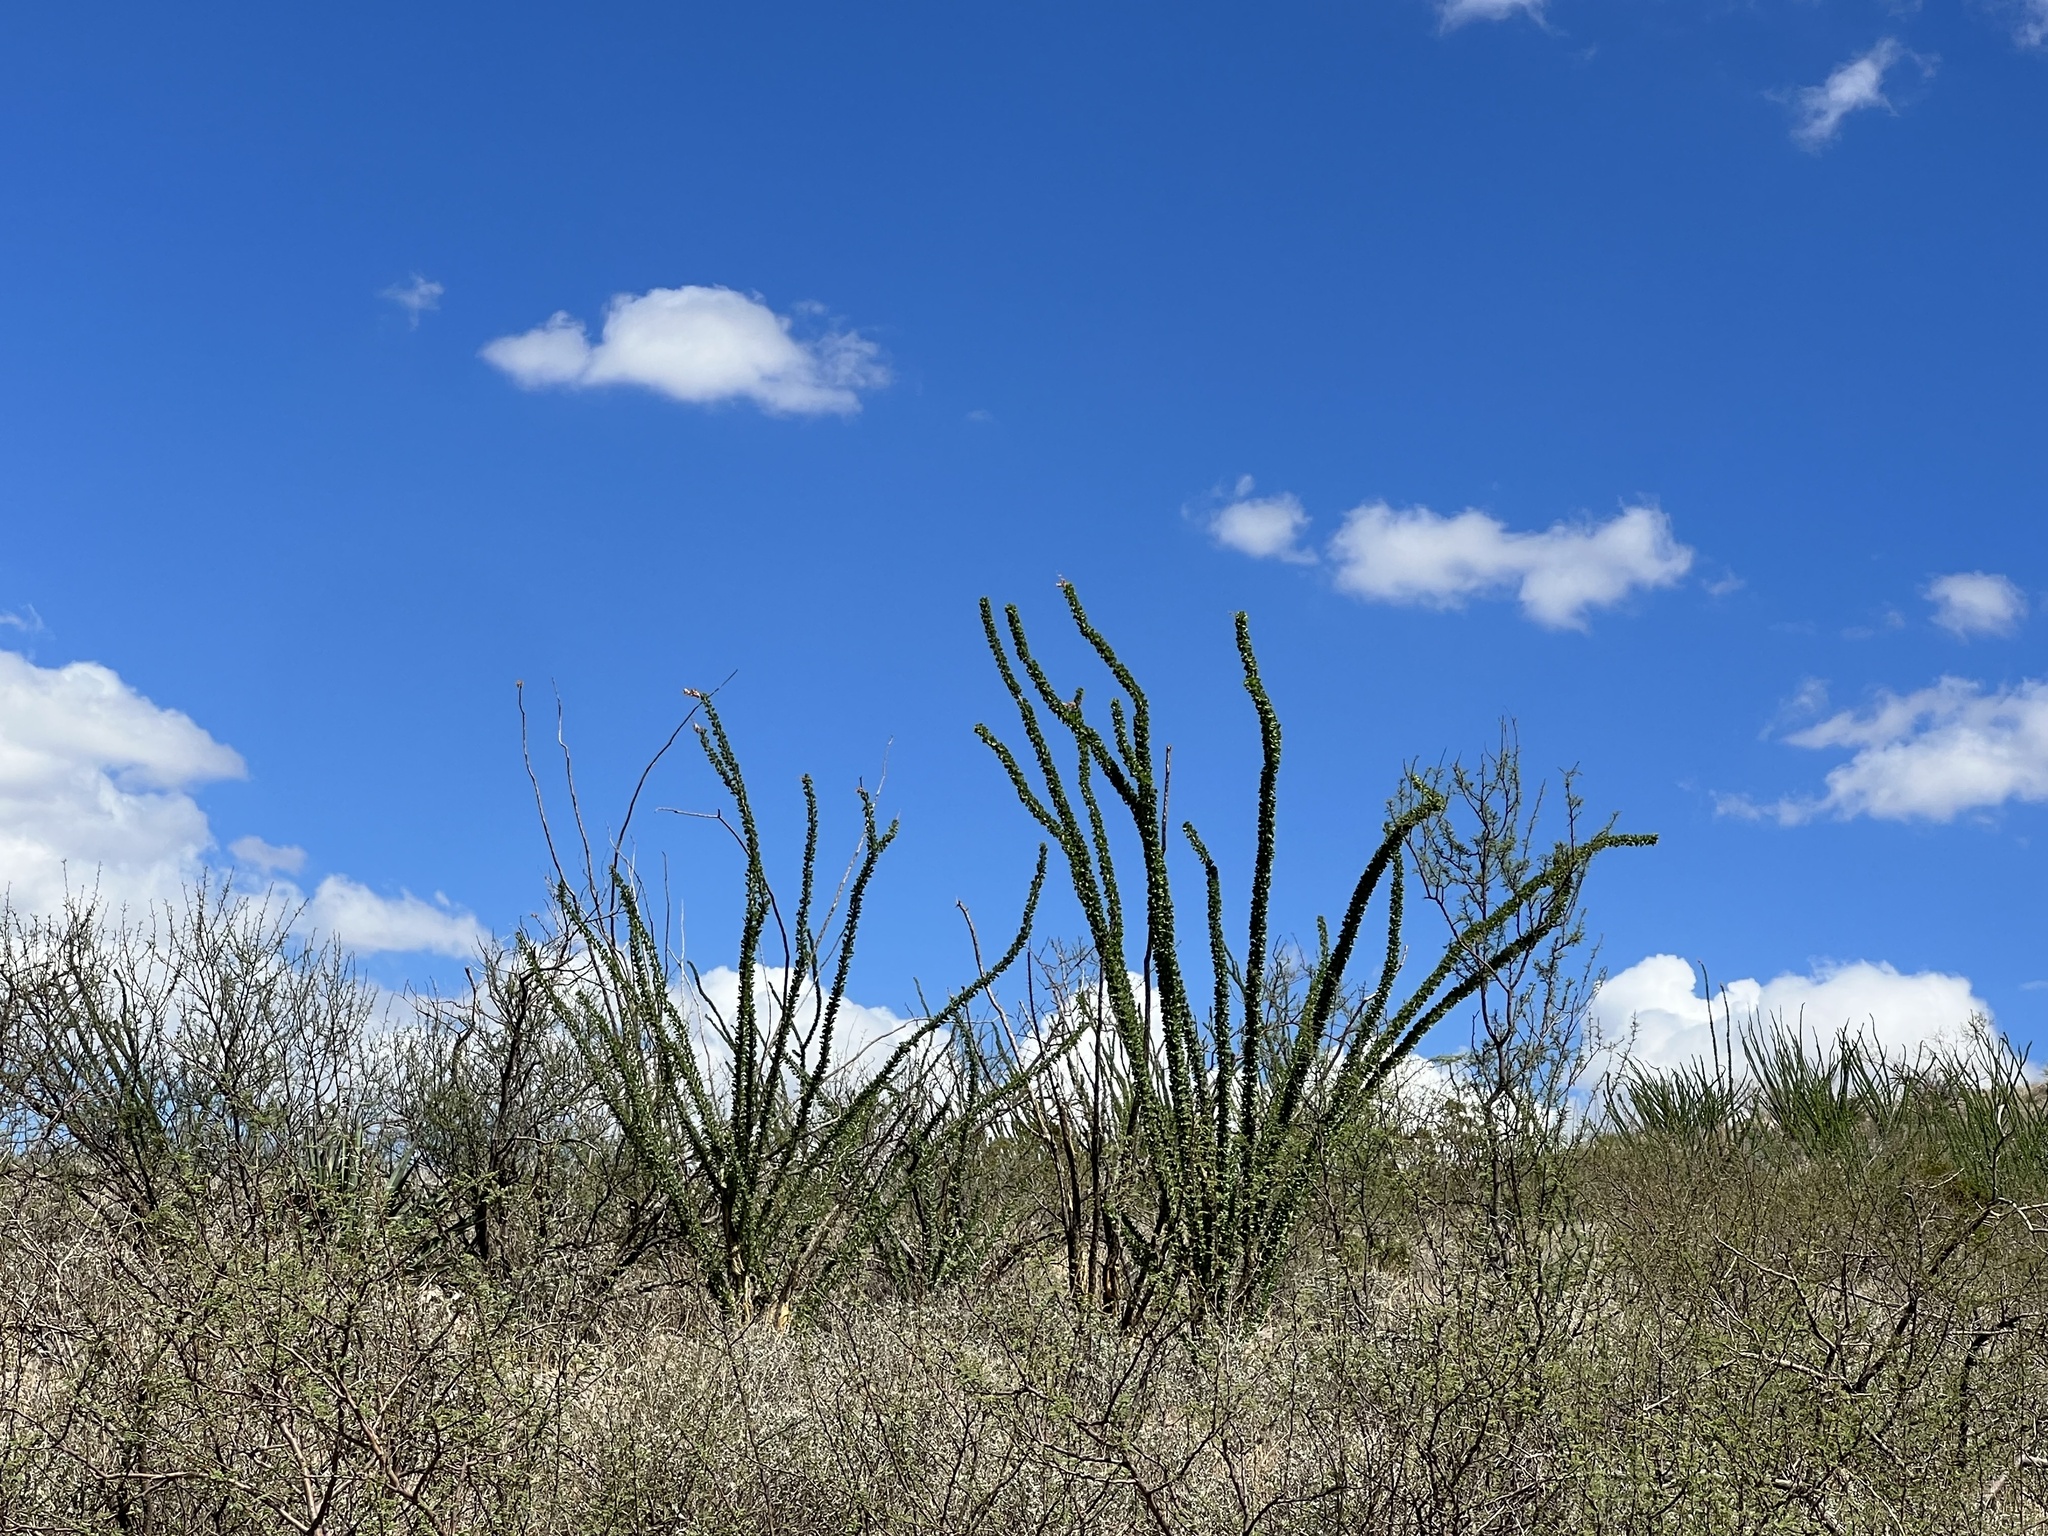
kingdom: Plantae
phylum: Tracheophyta
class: Magnoliopsida
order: Ericales
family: Fouquieriaceae
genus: Fouquieria
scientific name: Fouquieria splendens
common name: Vine-cactus
